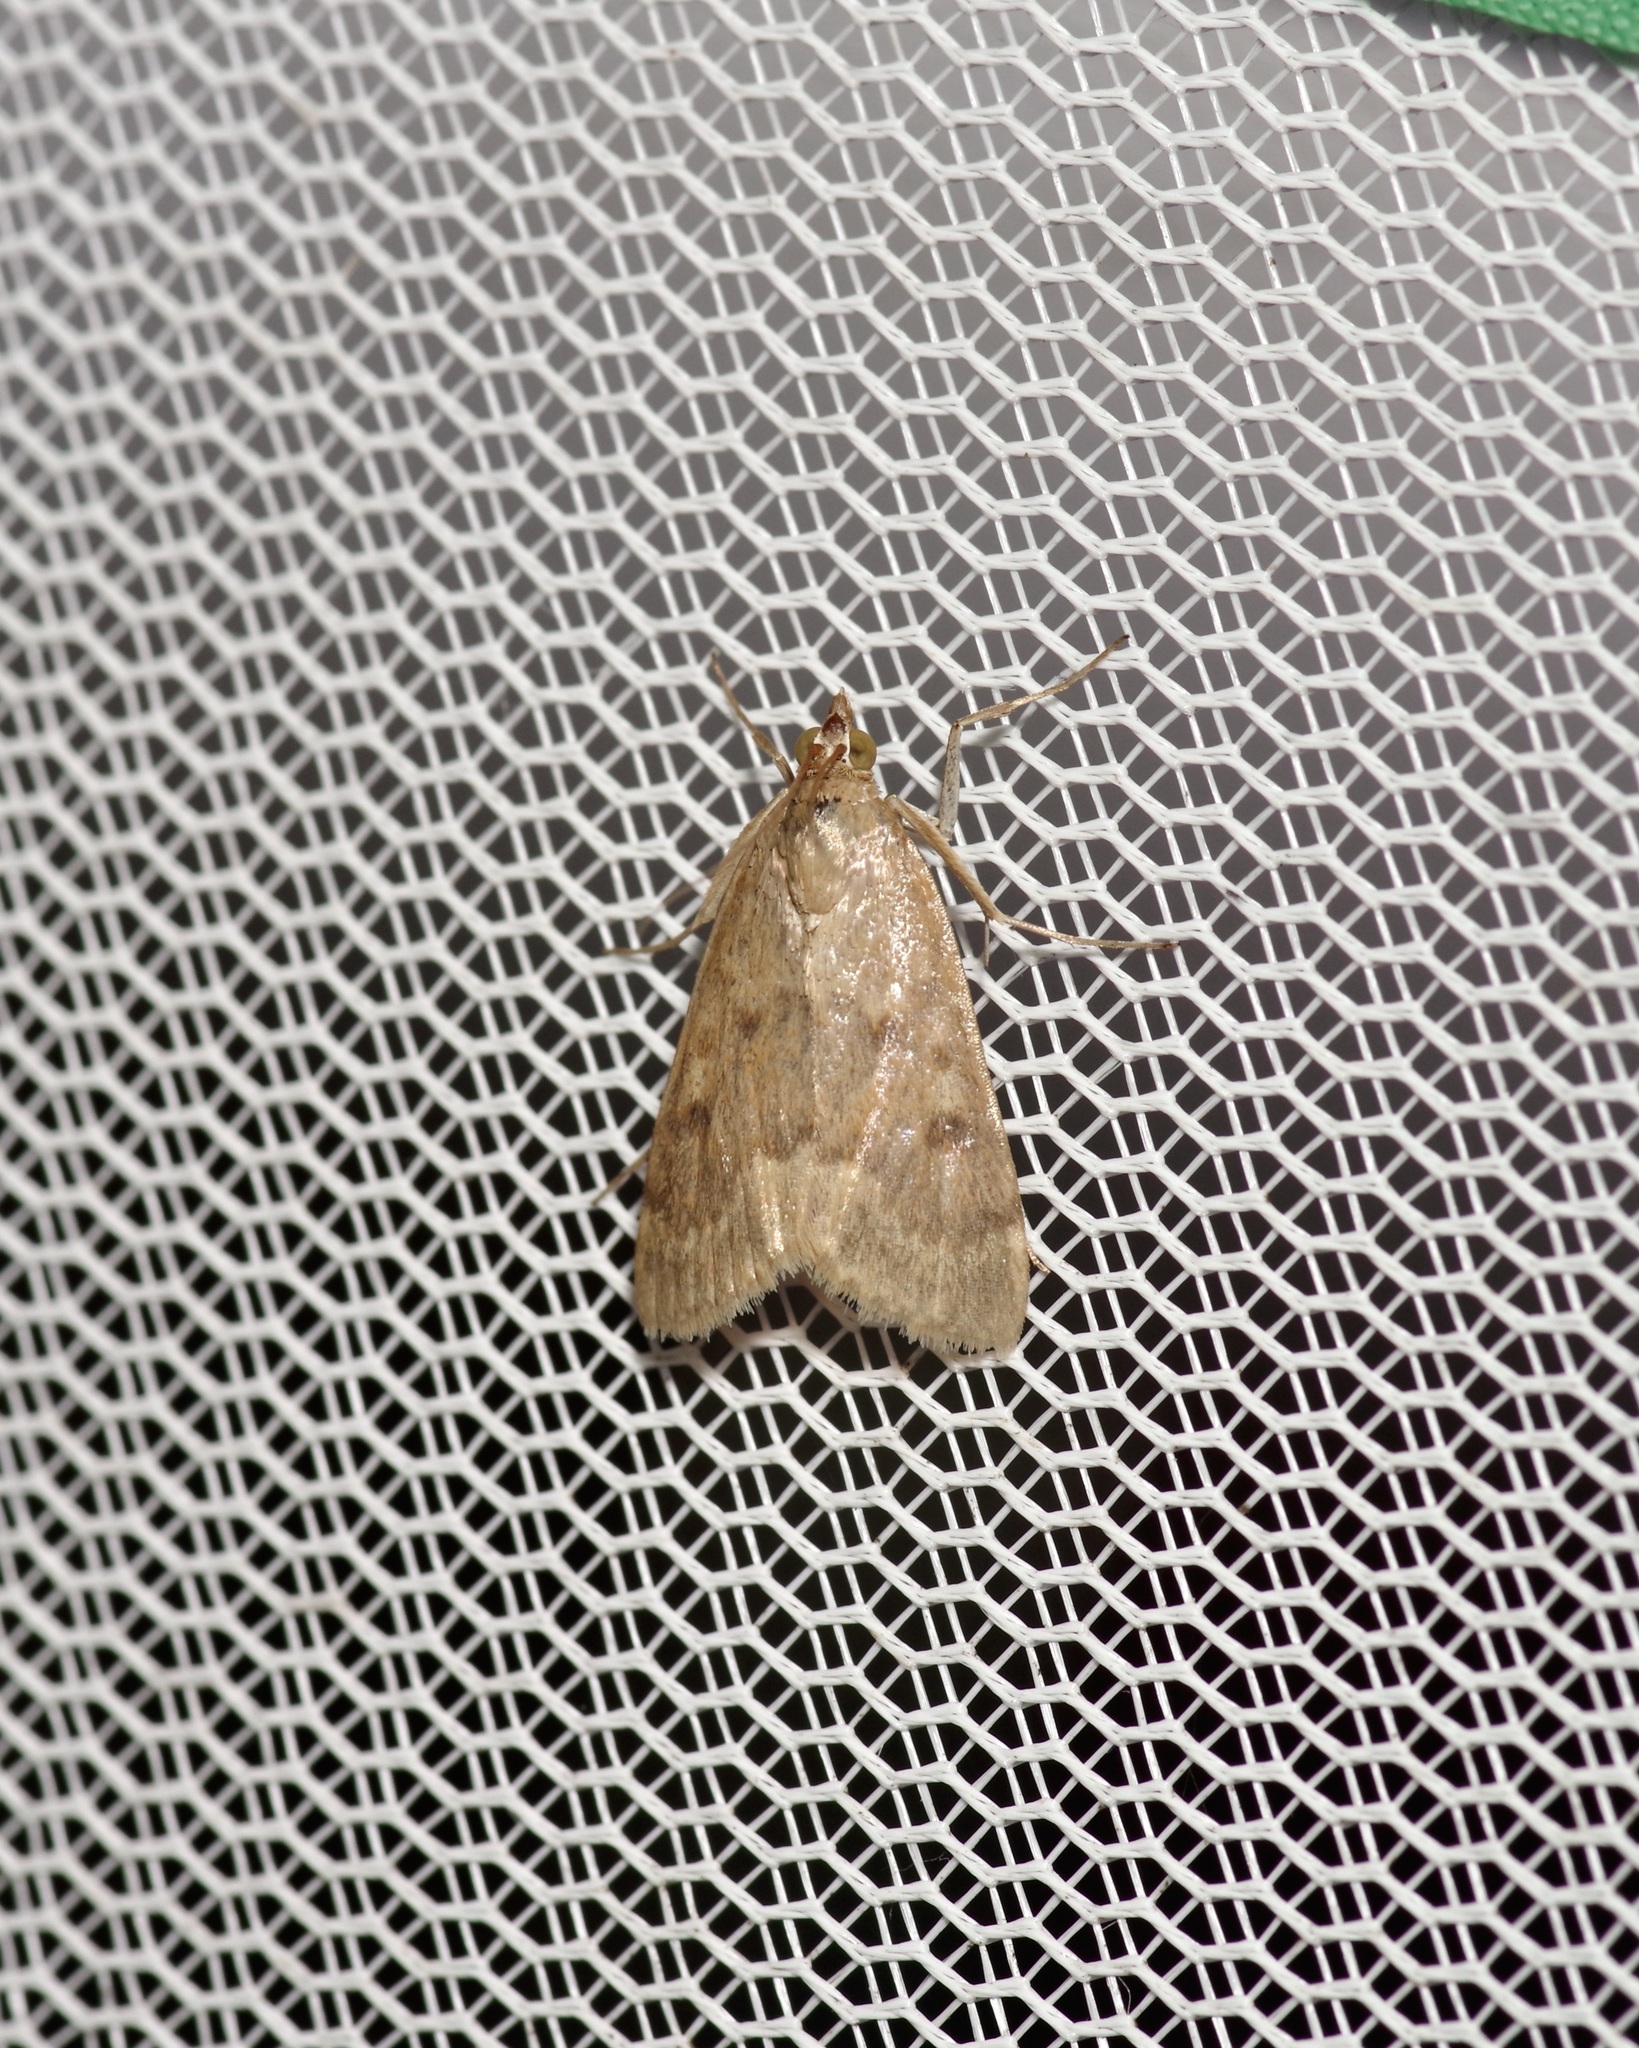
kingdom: Animalia
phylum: Arthropoda
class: Insecta
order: Lepidoptera
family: Crambidae
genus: Achyra
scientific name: Achyra rantalis
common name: Garden webworm
